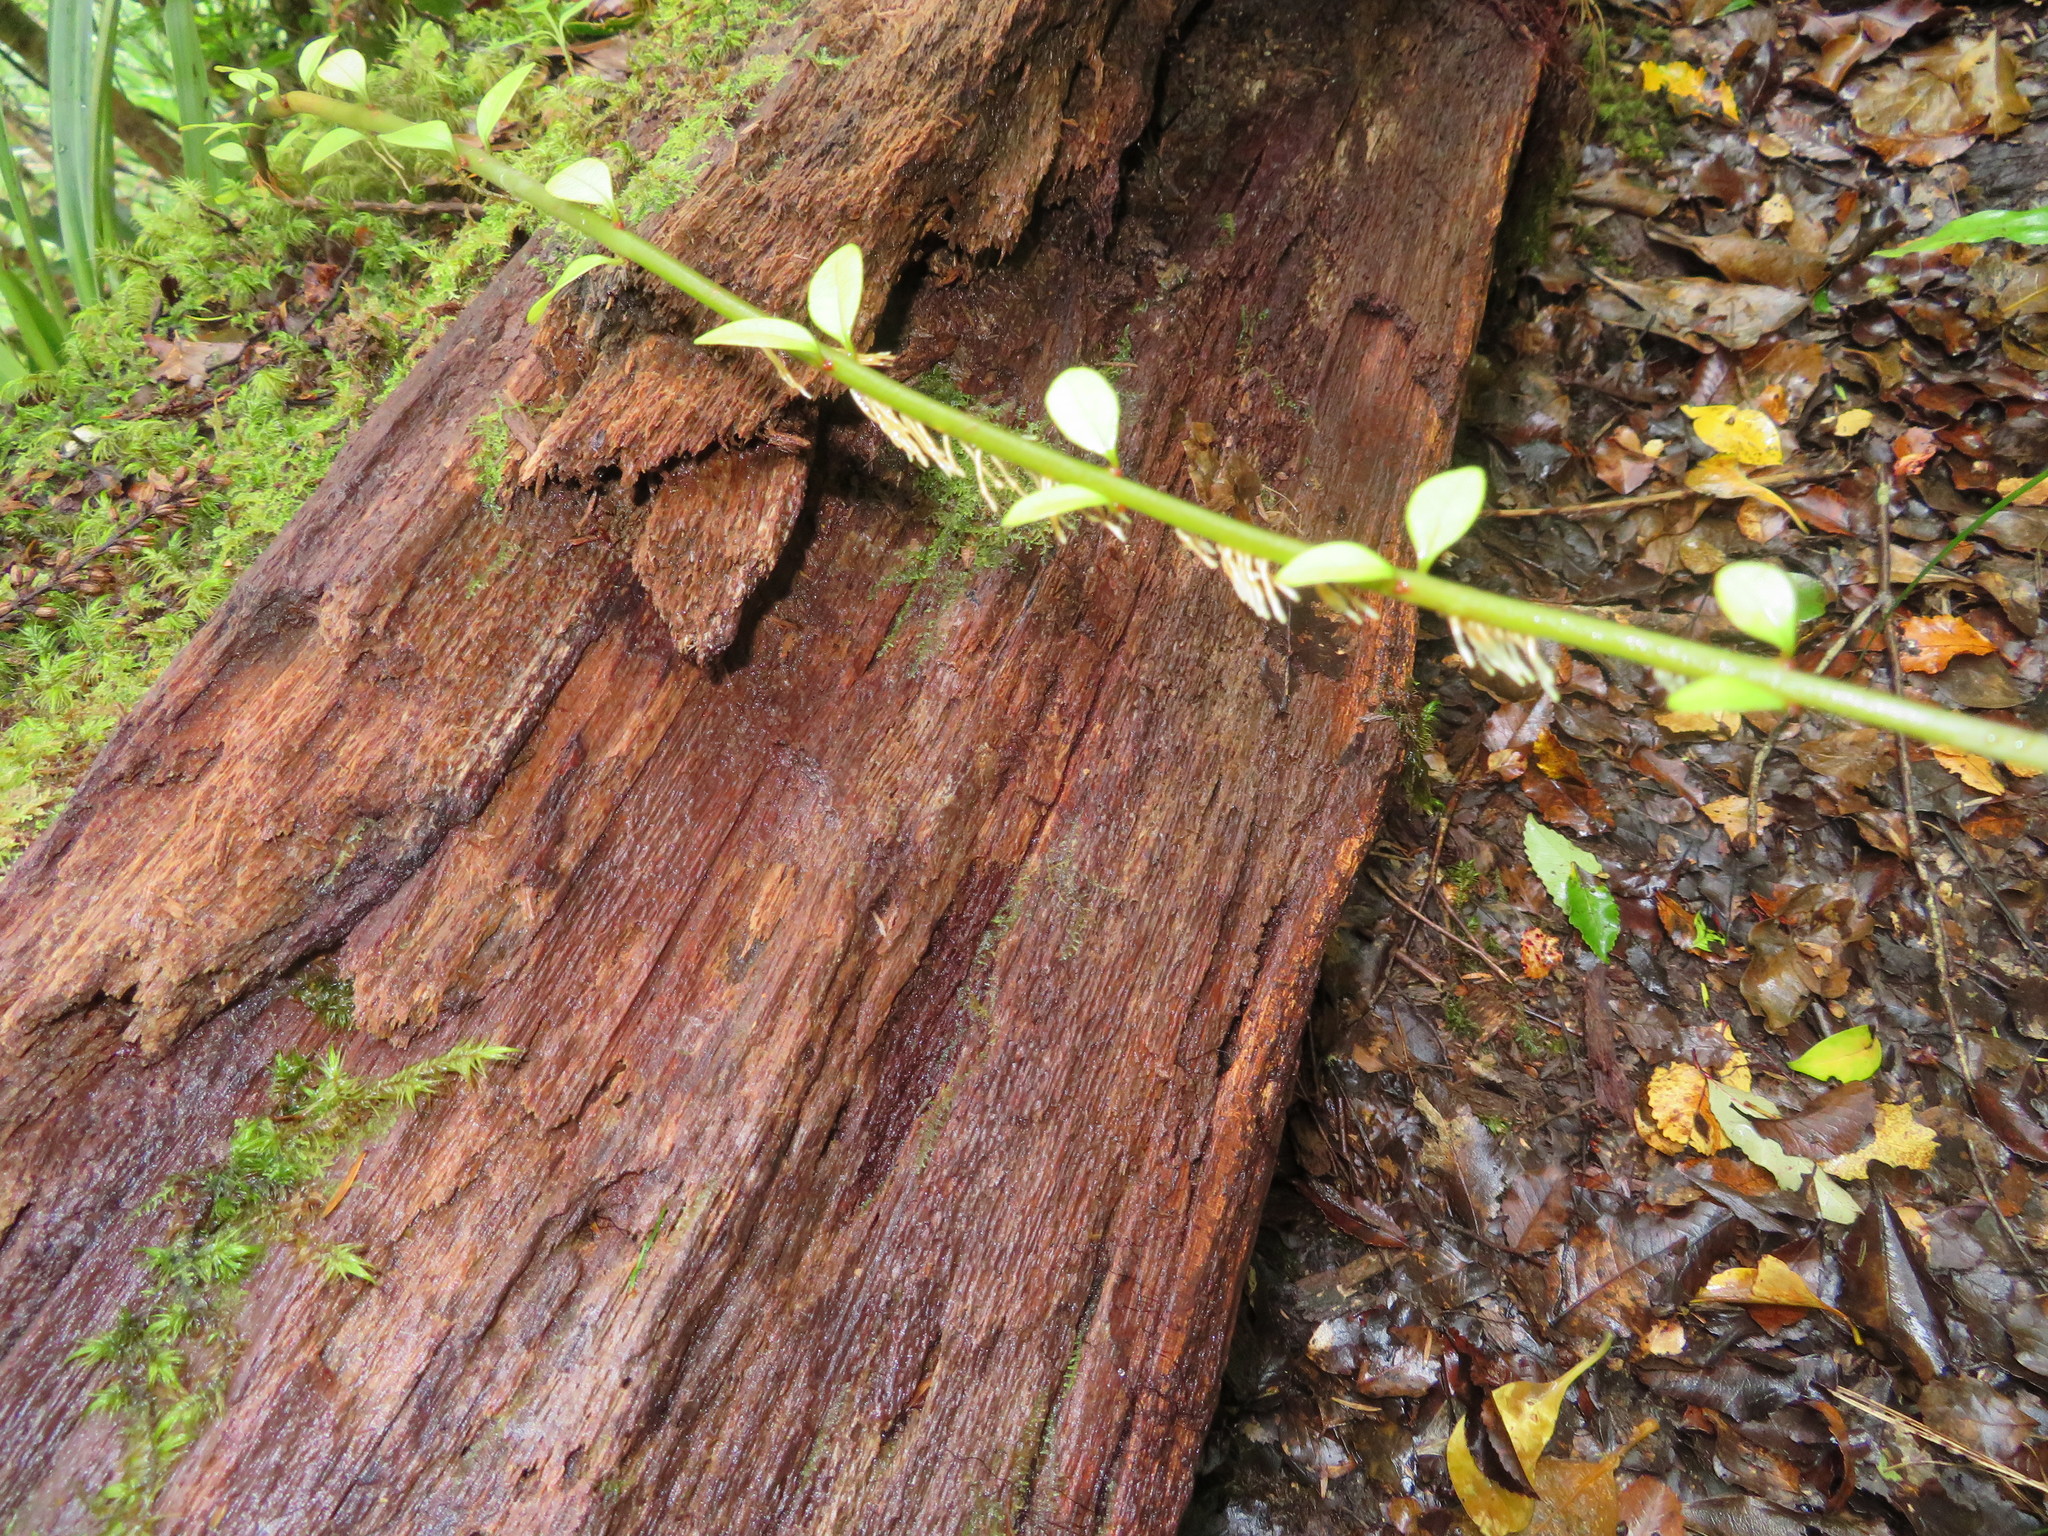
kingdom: Plantae
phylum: Tracheophyta
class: Magnoliopsida
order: Myrtales
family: Myrtaceae
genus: Metrosideros
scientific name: Metrosideros colensoi
